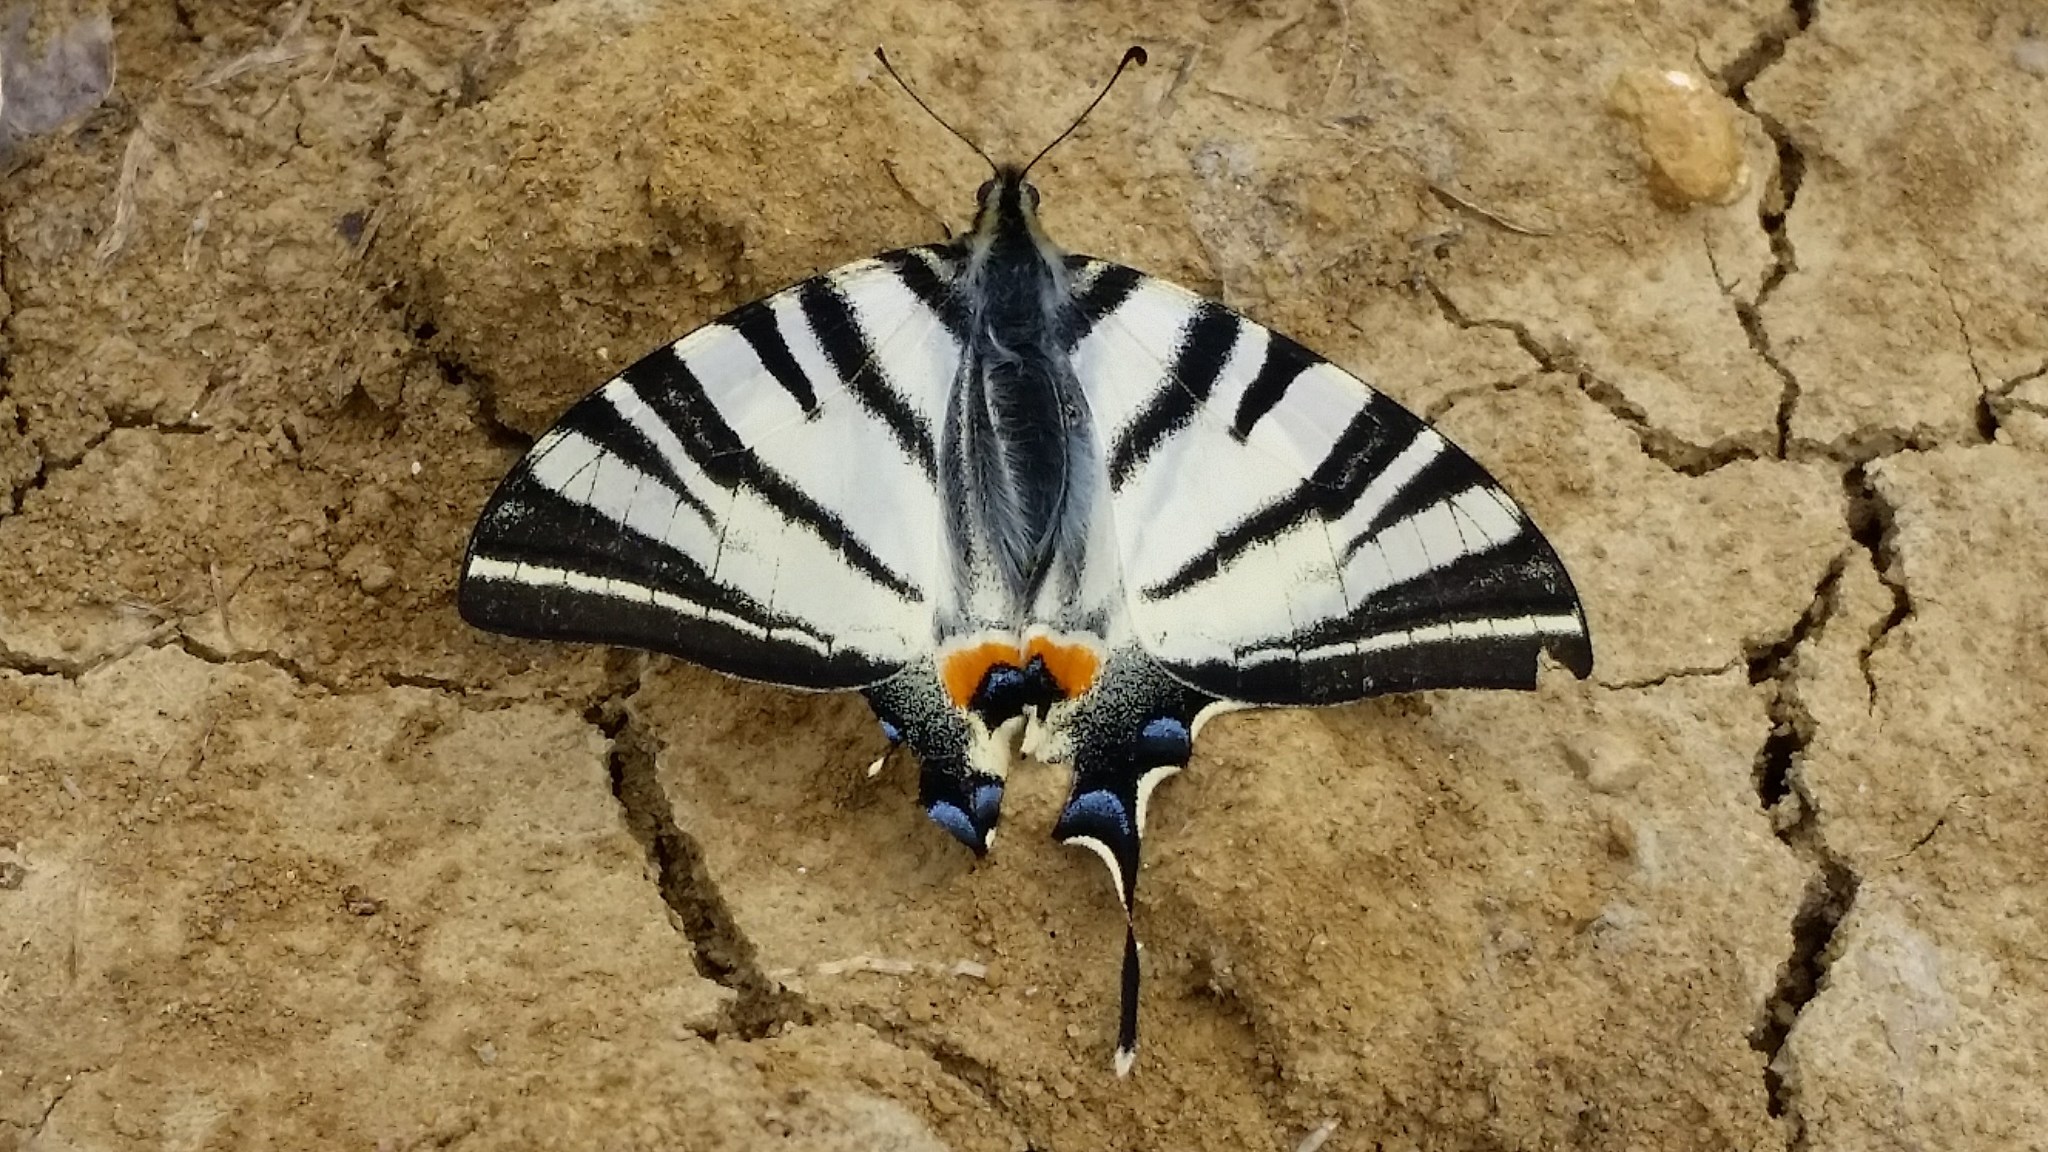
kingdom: Animalia
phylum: Arthropoda
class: Insecta
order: Lepidoptera
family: Papilionidae
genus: Iphiclides
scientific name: Iphiclides podalirius
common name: Scarce swallowtail
